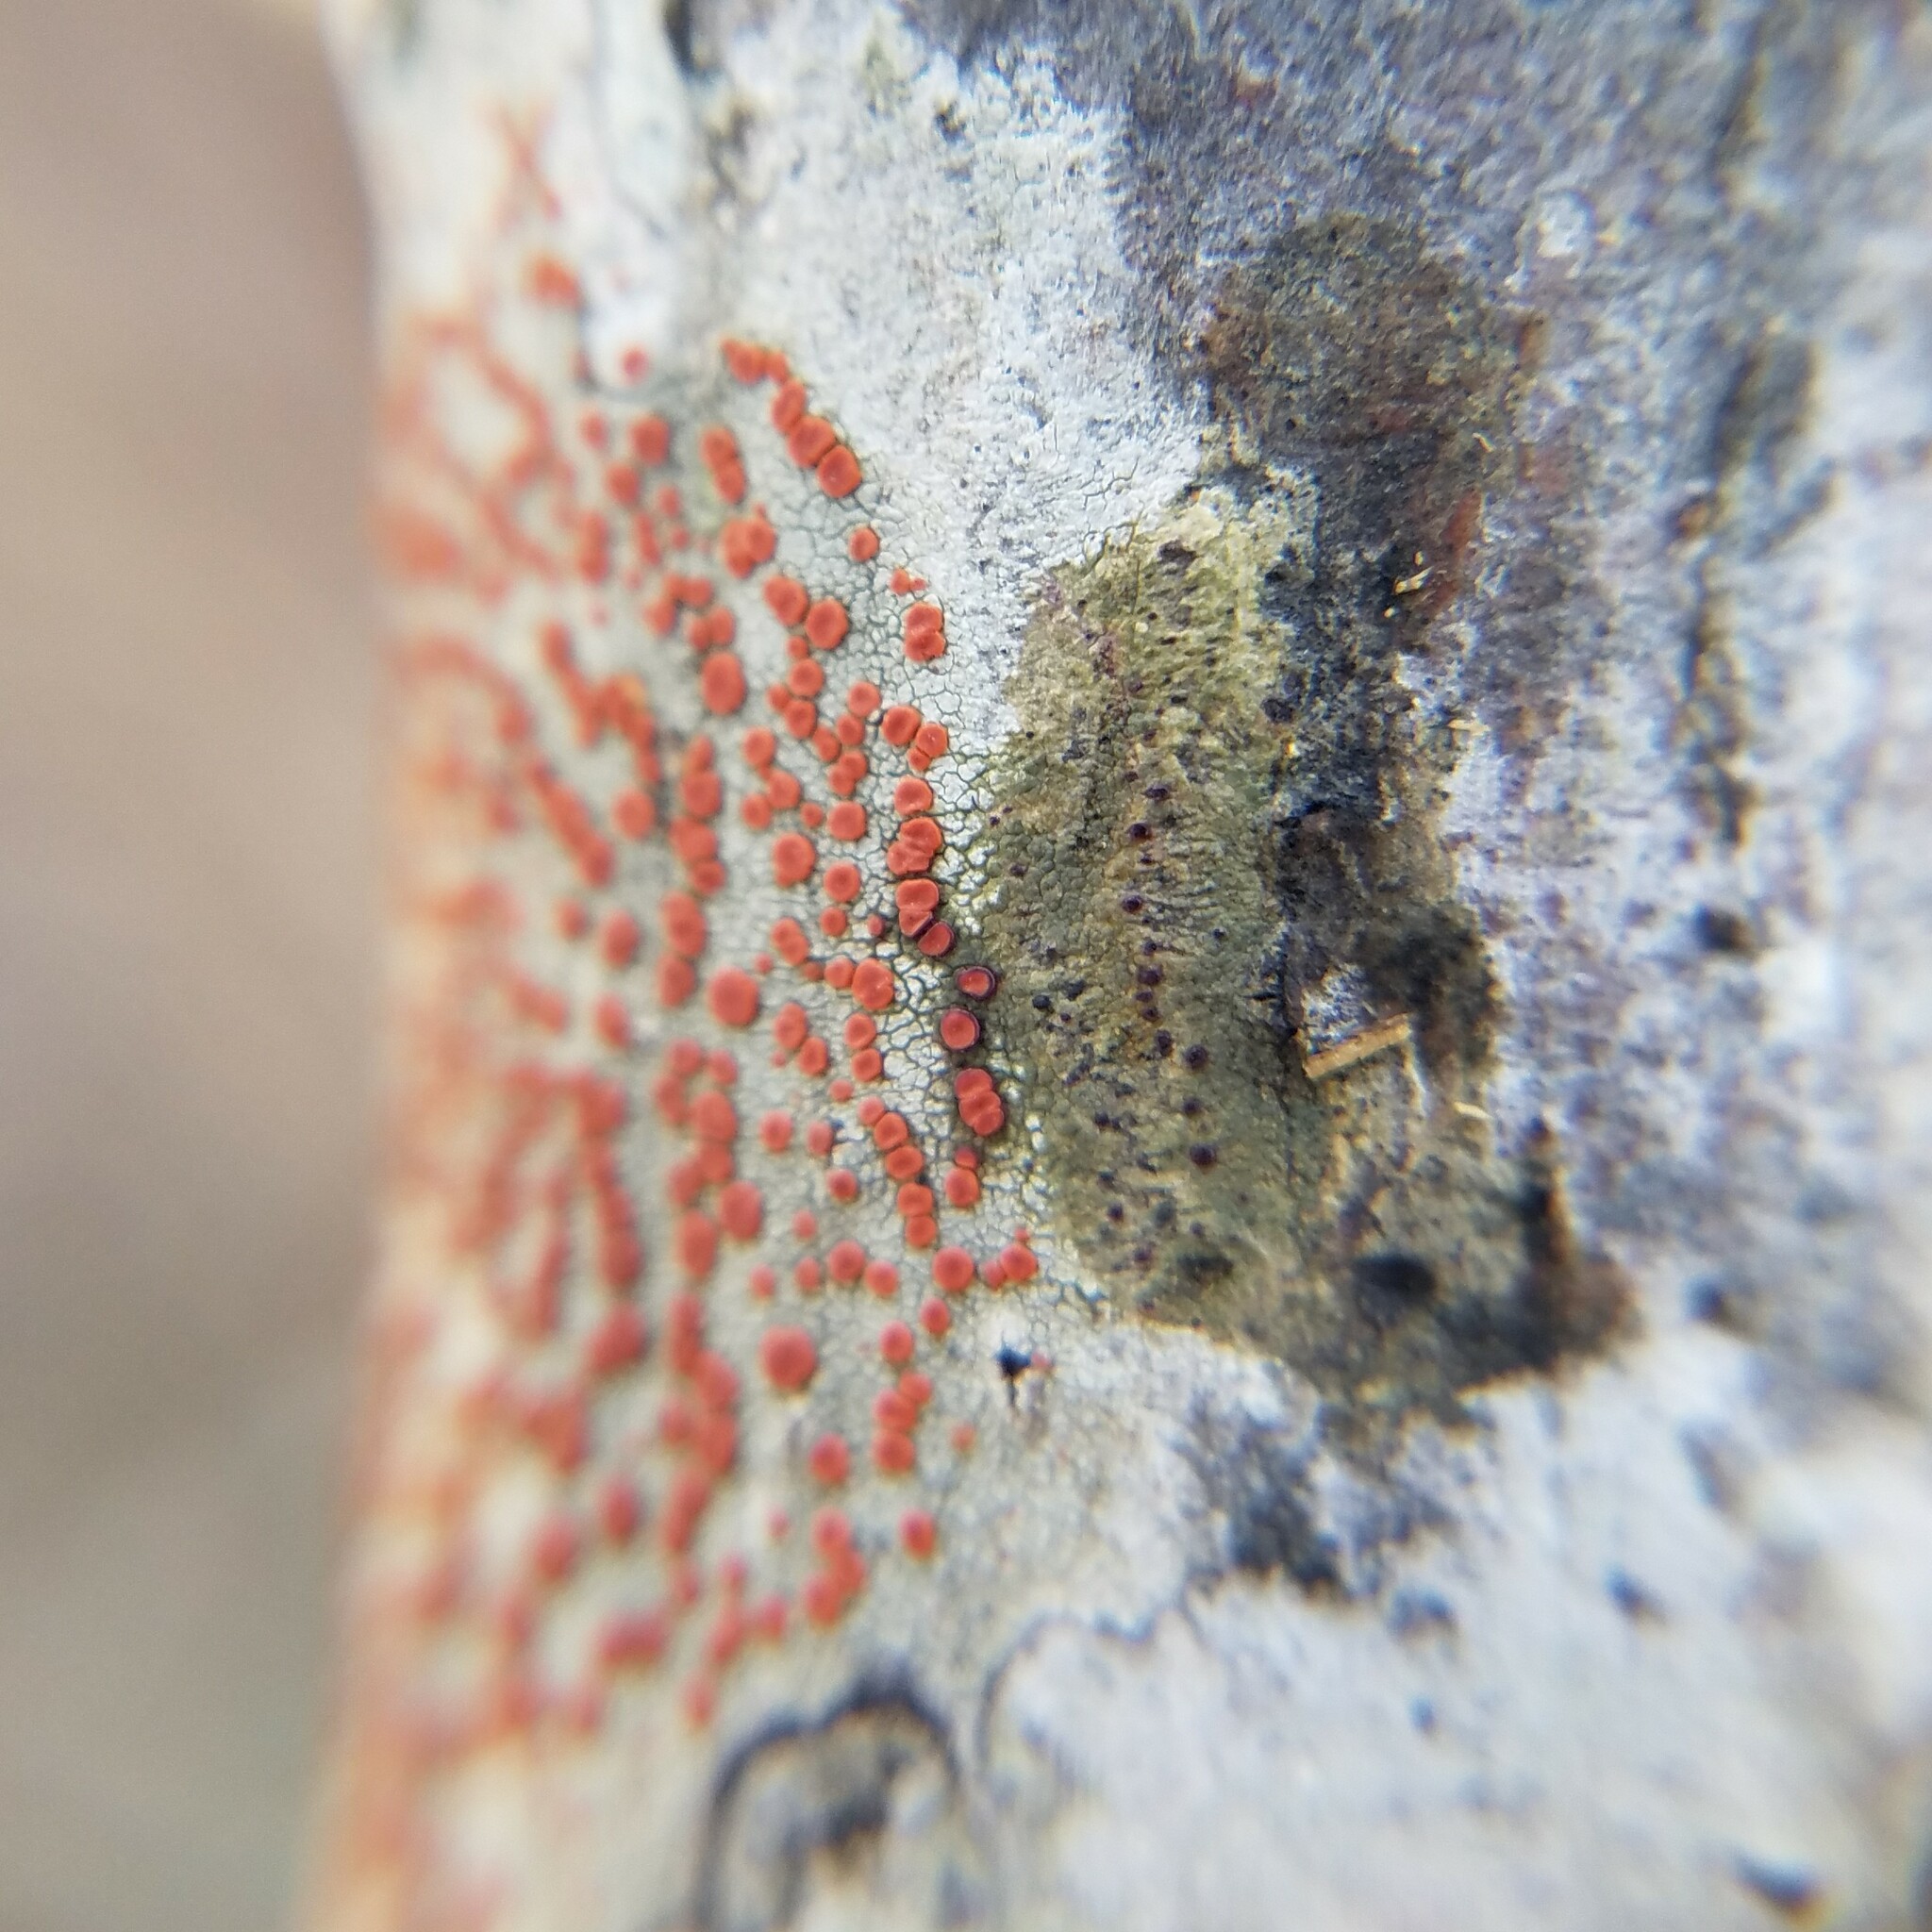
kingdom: Fungi
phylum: Ascomycota
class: Lecanoromycetes
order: Lecanorales
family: Ramboldiaceae
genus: Ramboldia
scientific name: Ramboldia russula
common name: Red heads
